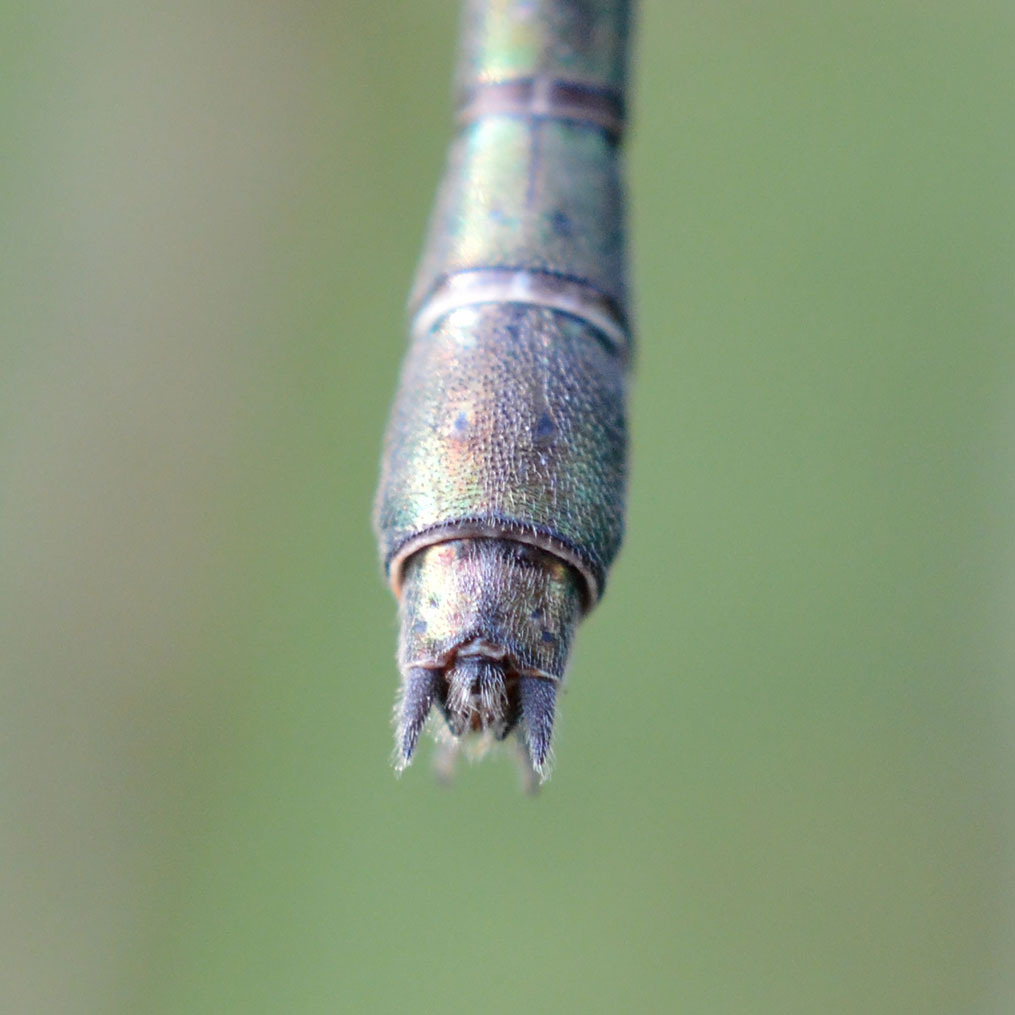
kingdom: Animalia
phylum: Arthropoda
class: Insecta
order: Odonata
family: Lestidae
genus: Chalcolestes
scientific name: Chalcolestes viridis
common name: Green emerald damselfly
